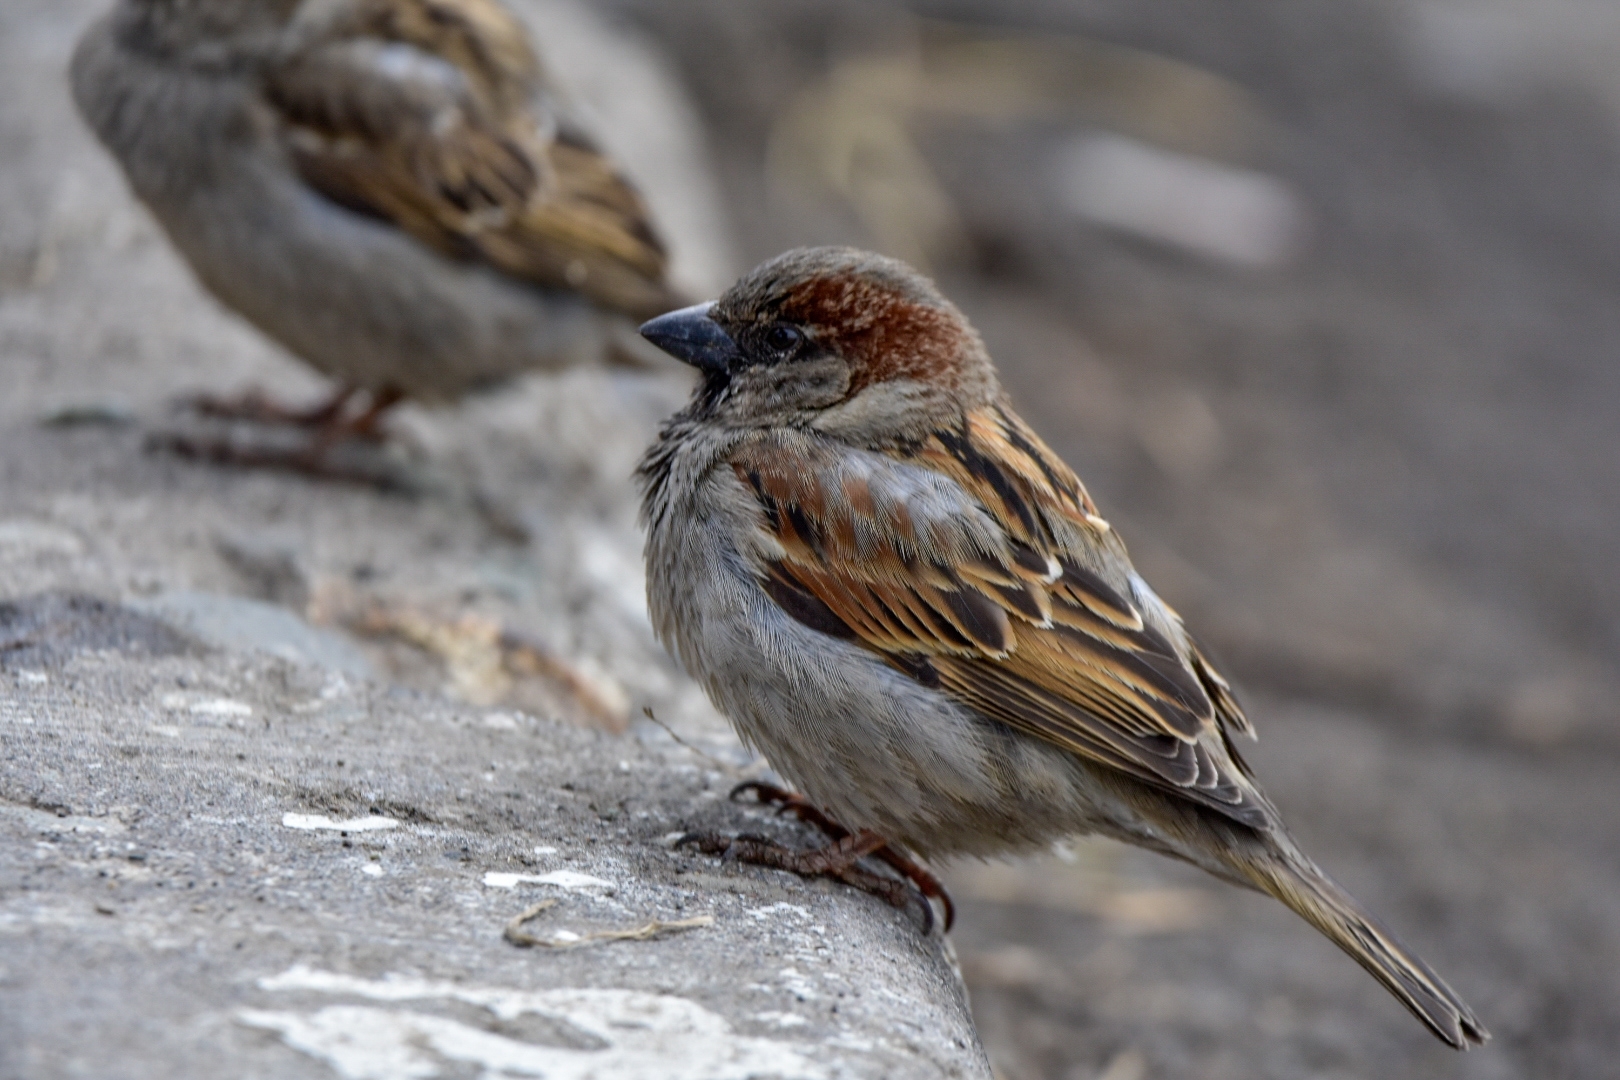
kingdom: Animalia
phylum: Chordata
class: Aves
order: Passeriformes
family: Passeridae
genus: Passer
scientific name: Passer domesticus
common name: House sparrow
